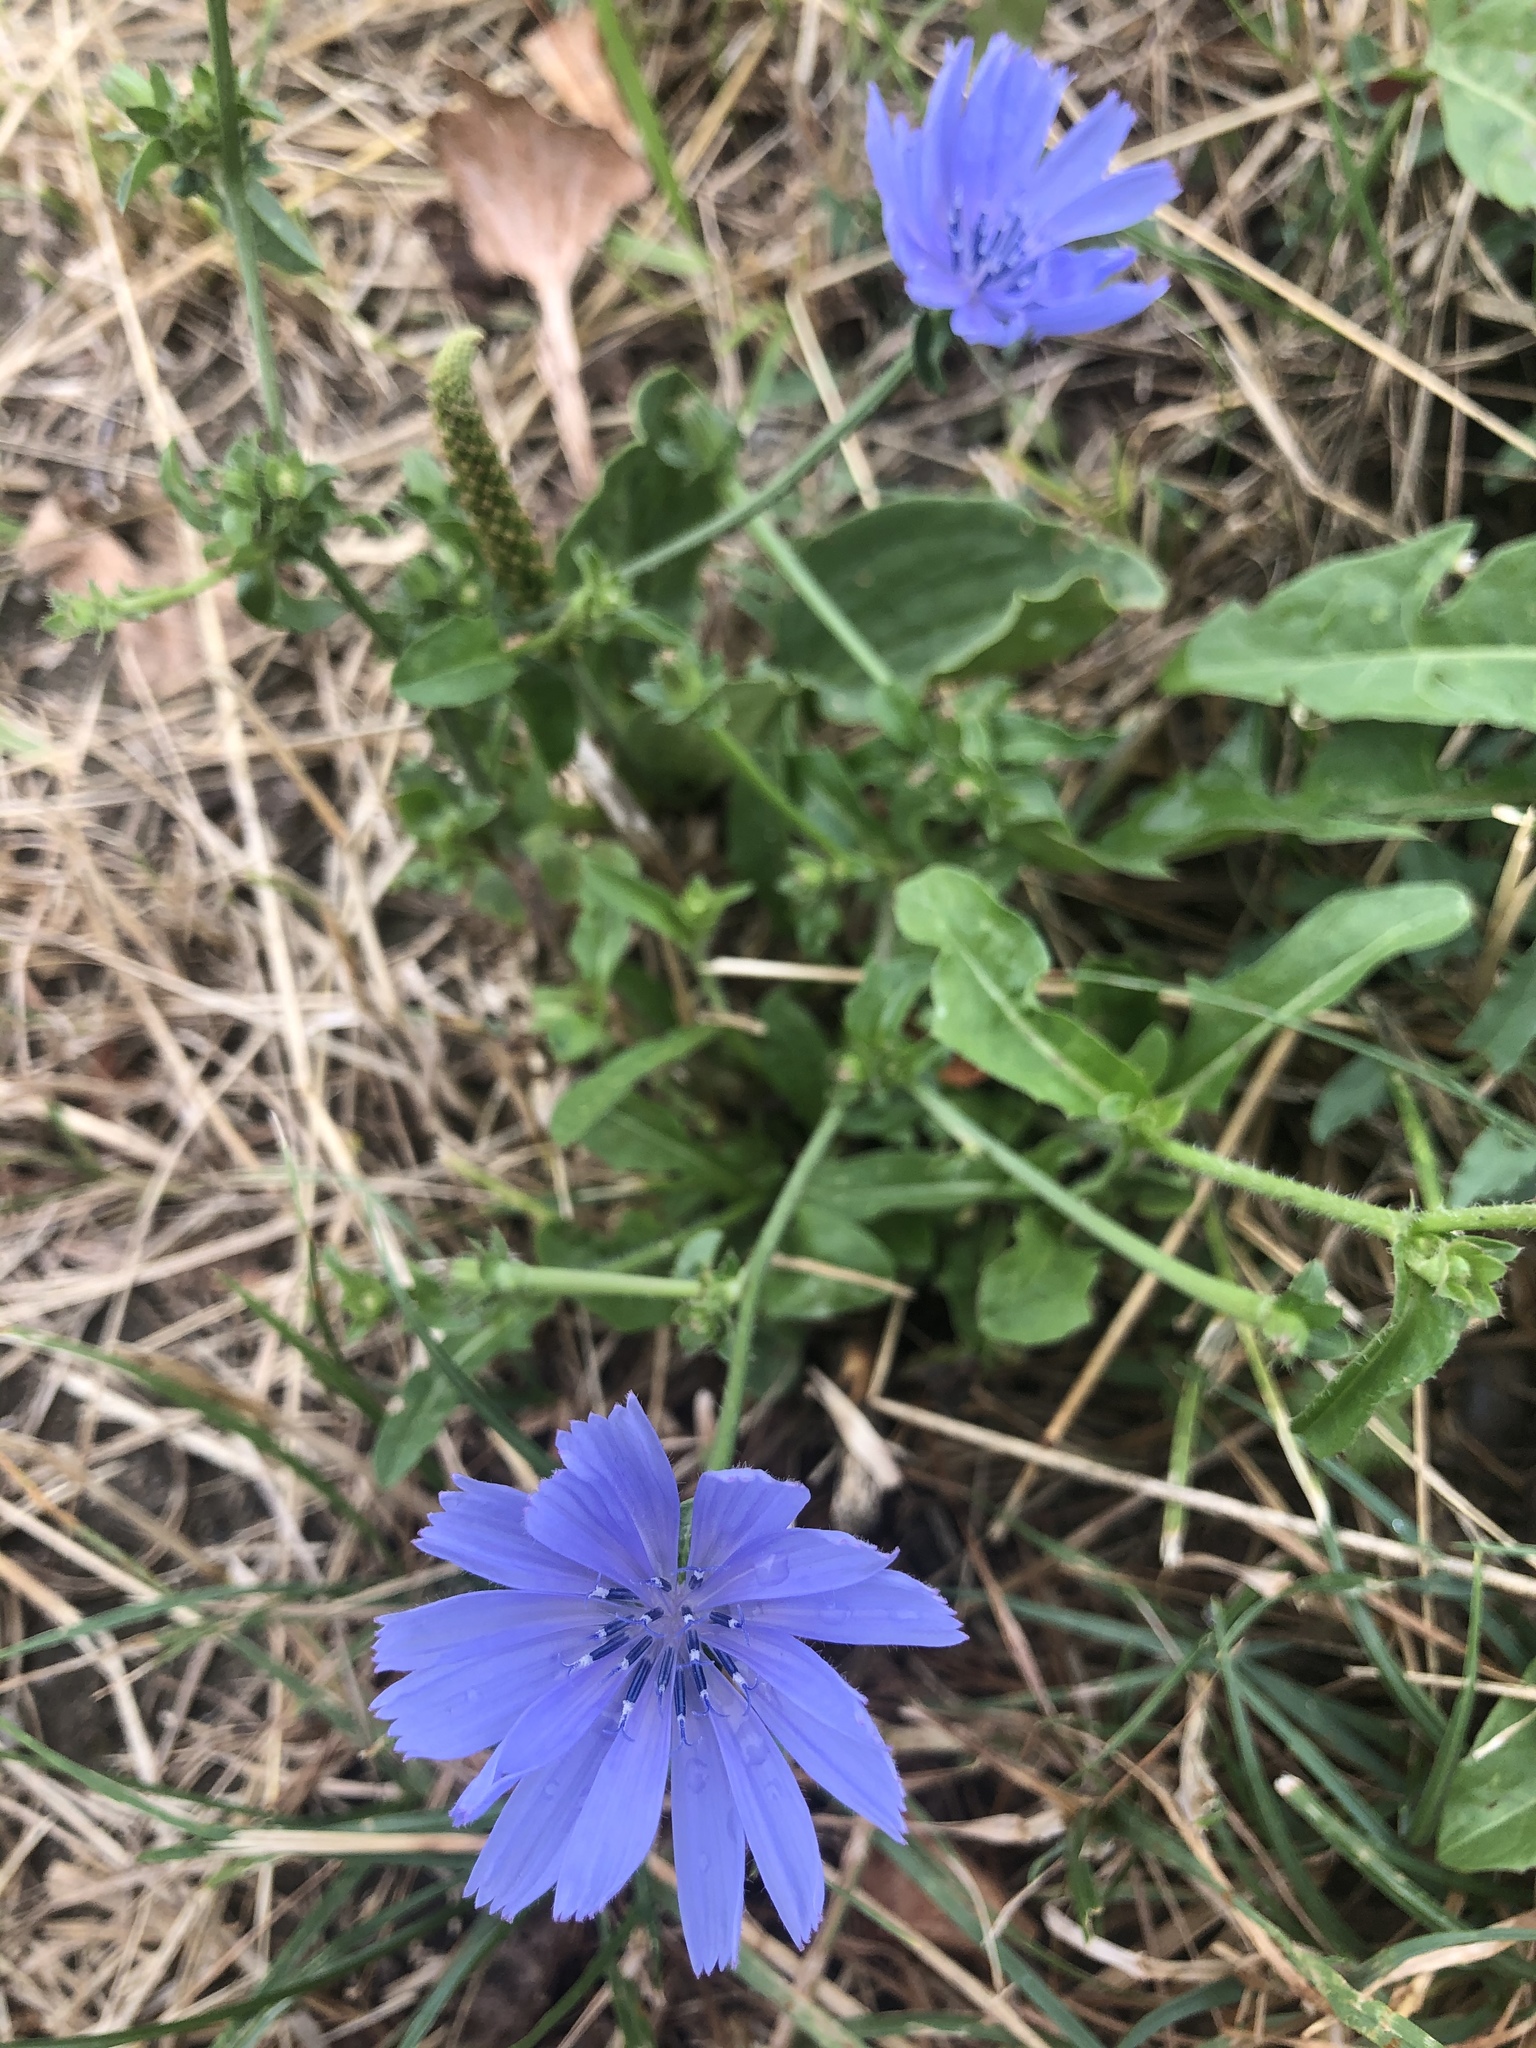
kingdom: Plantae
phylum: Tracheophyta
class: Magnoliopsida
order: Asterales
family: Asteraceae
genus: Cichorium
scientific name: Cichorium intybus
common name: Chicory
